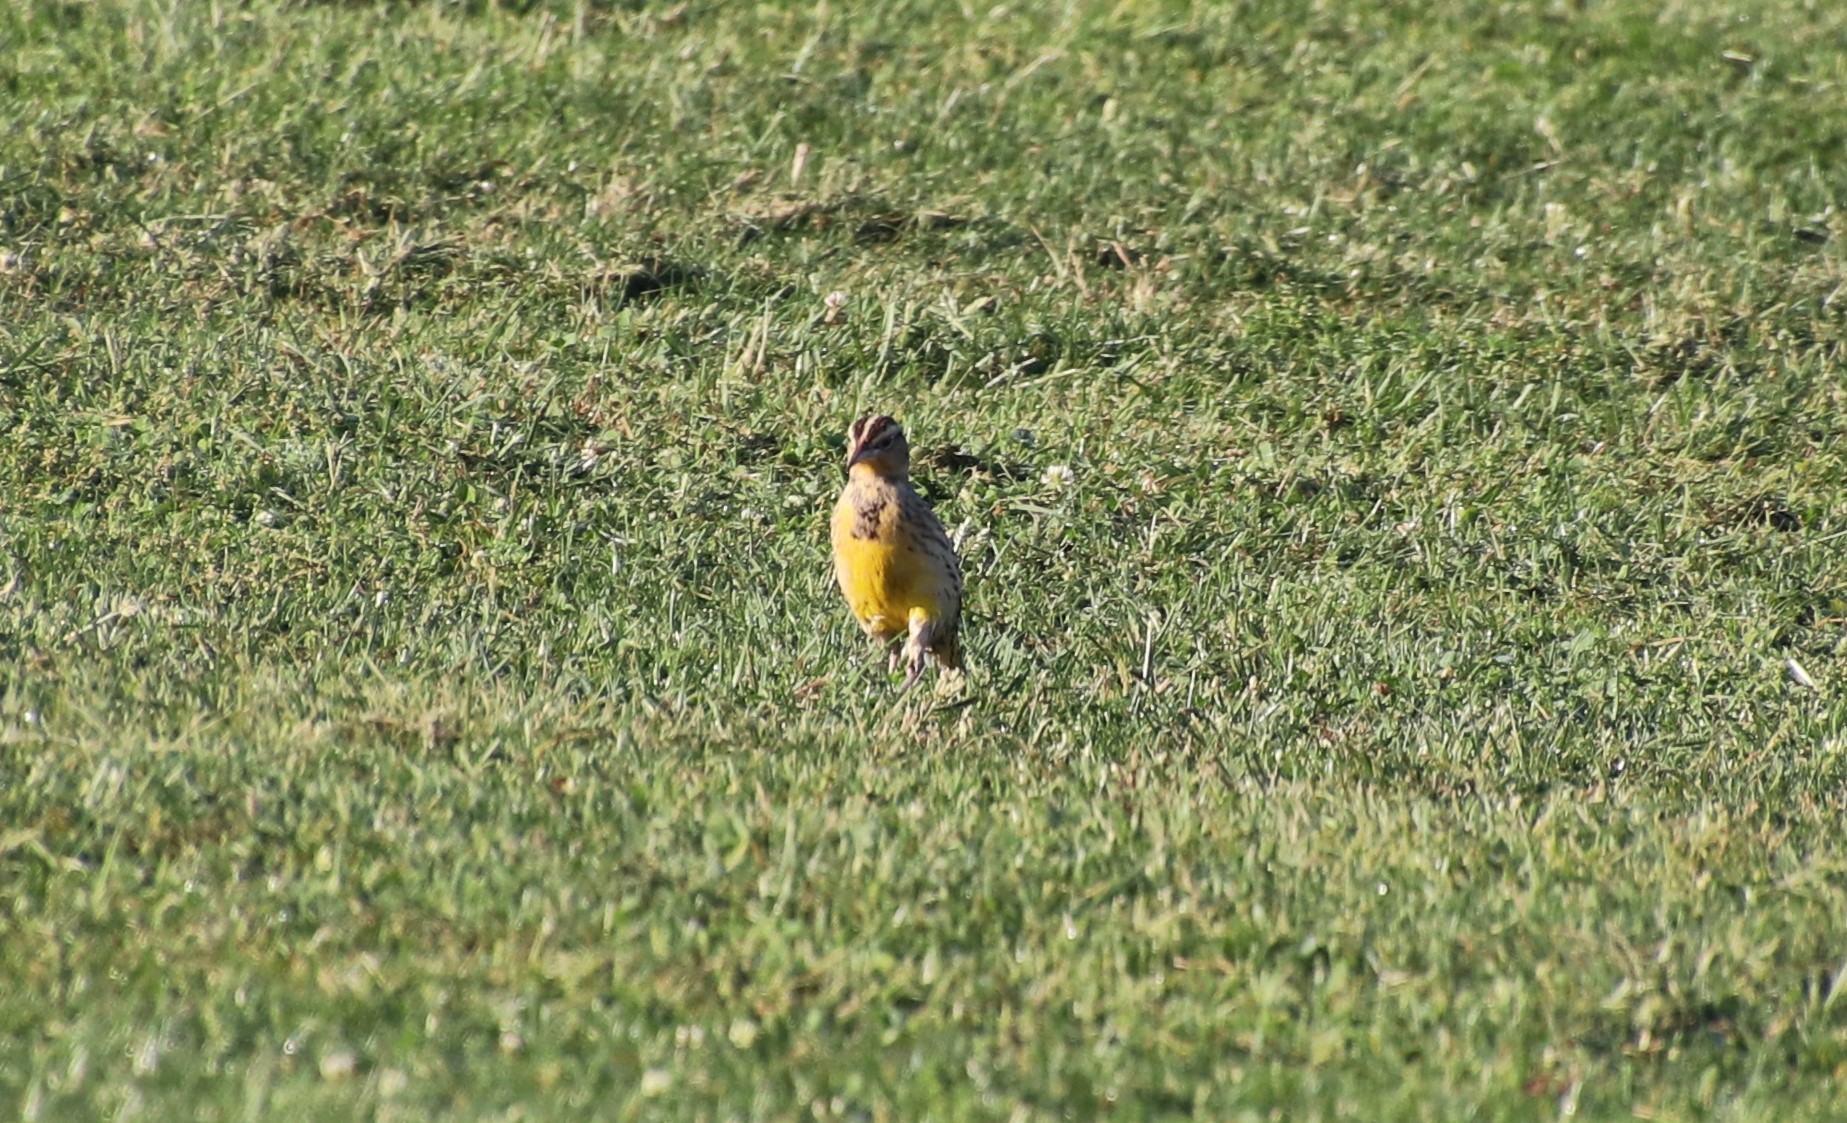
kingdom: Animalia
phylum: Chordata
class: Aves
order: Passeriformes
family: Icteridae
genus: Sturnella
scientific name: Sturnella neglecta
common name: Western meadowlark
